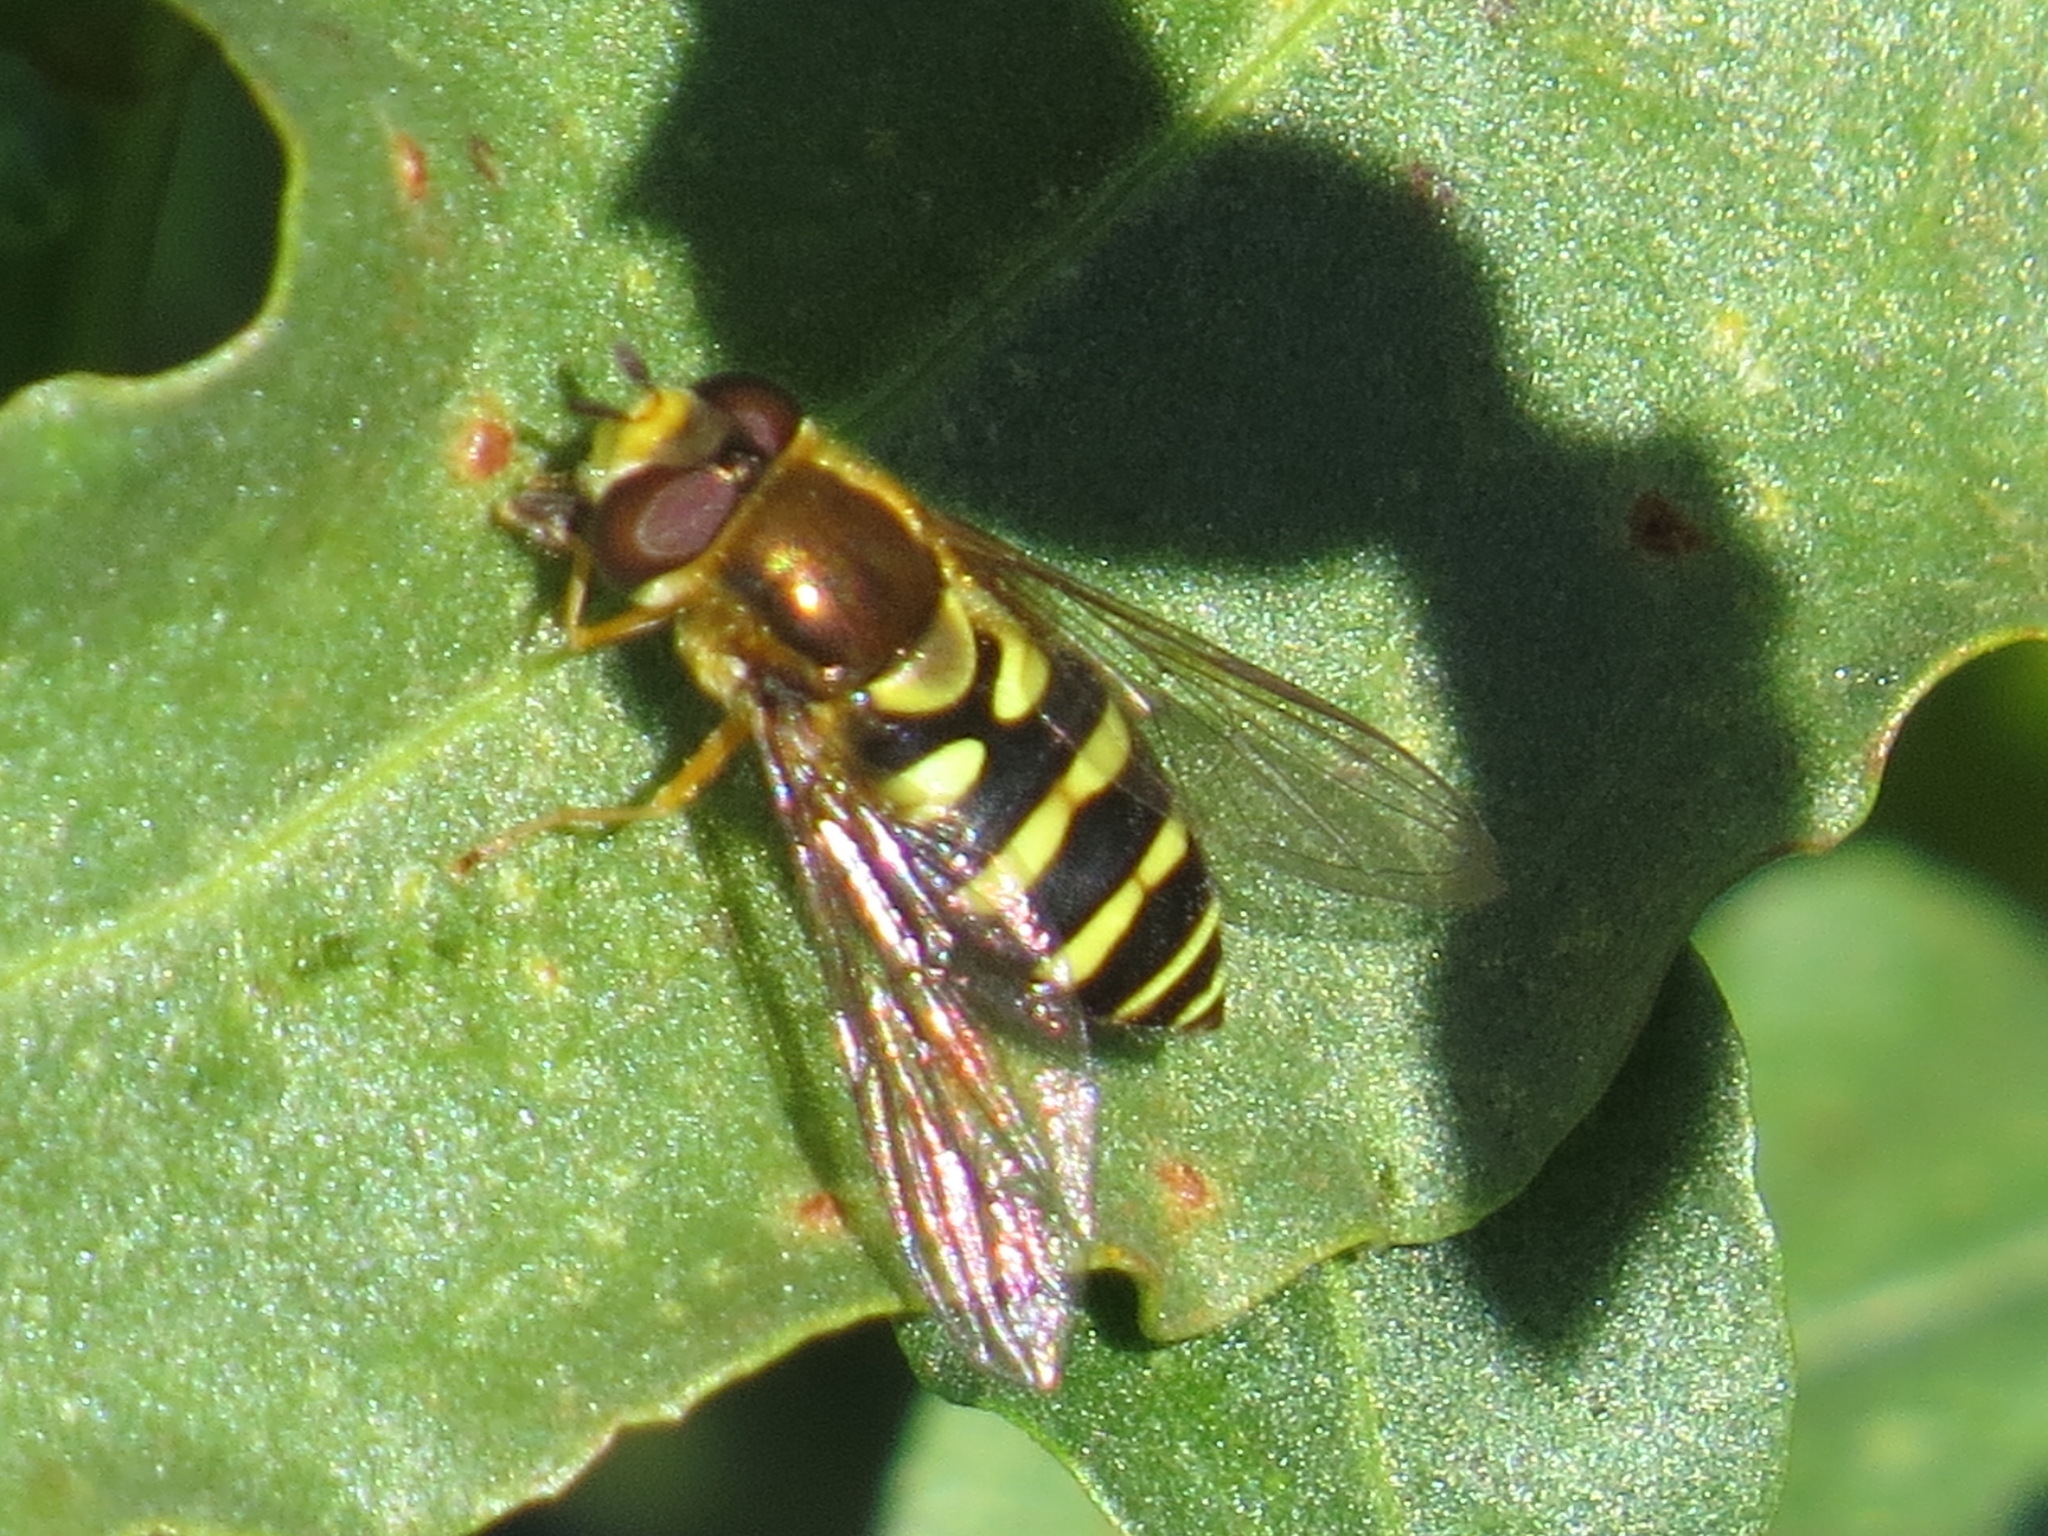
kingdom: Animalia
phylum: Arthropoda
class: Insecta
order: Diptera
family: Syrphidae
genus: Syrphus
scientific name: Syrphus opinator
